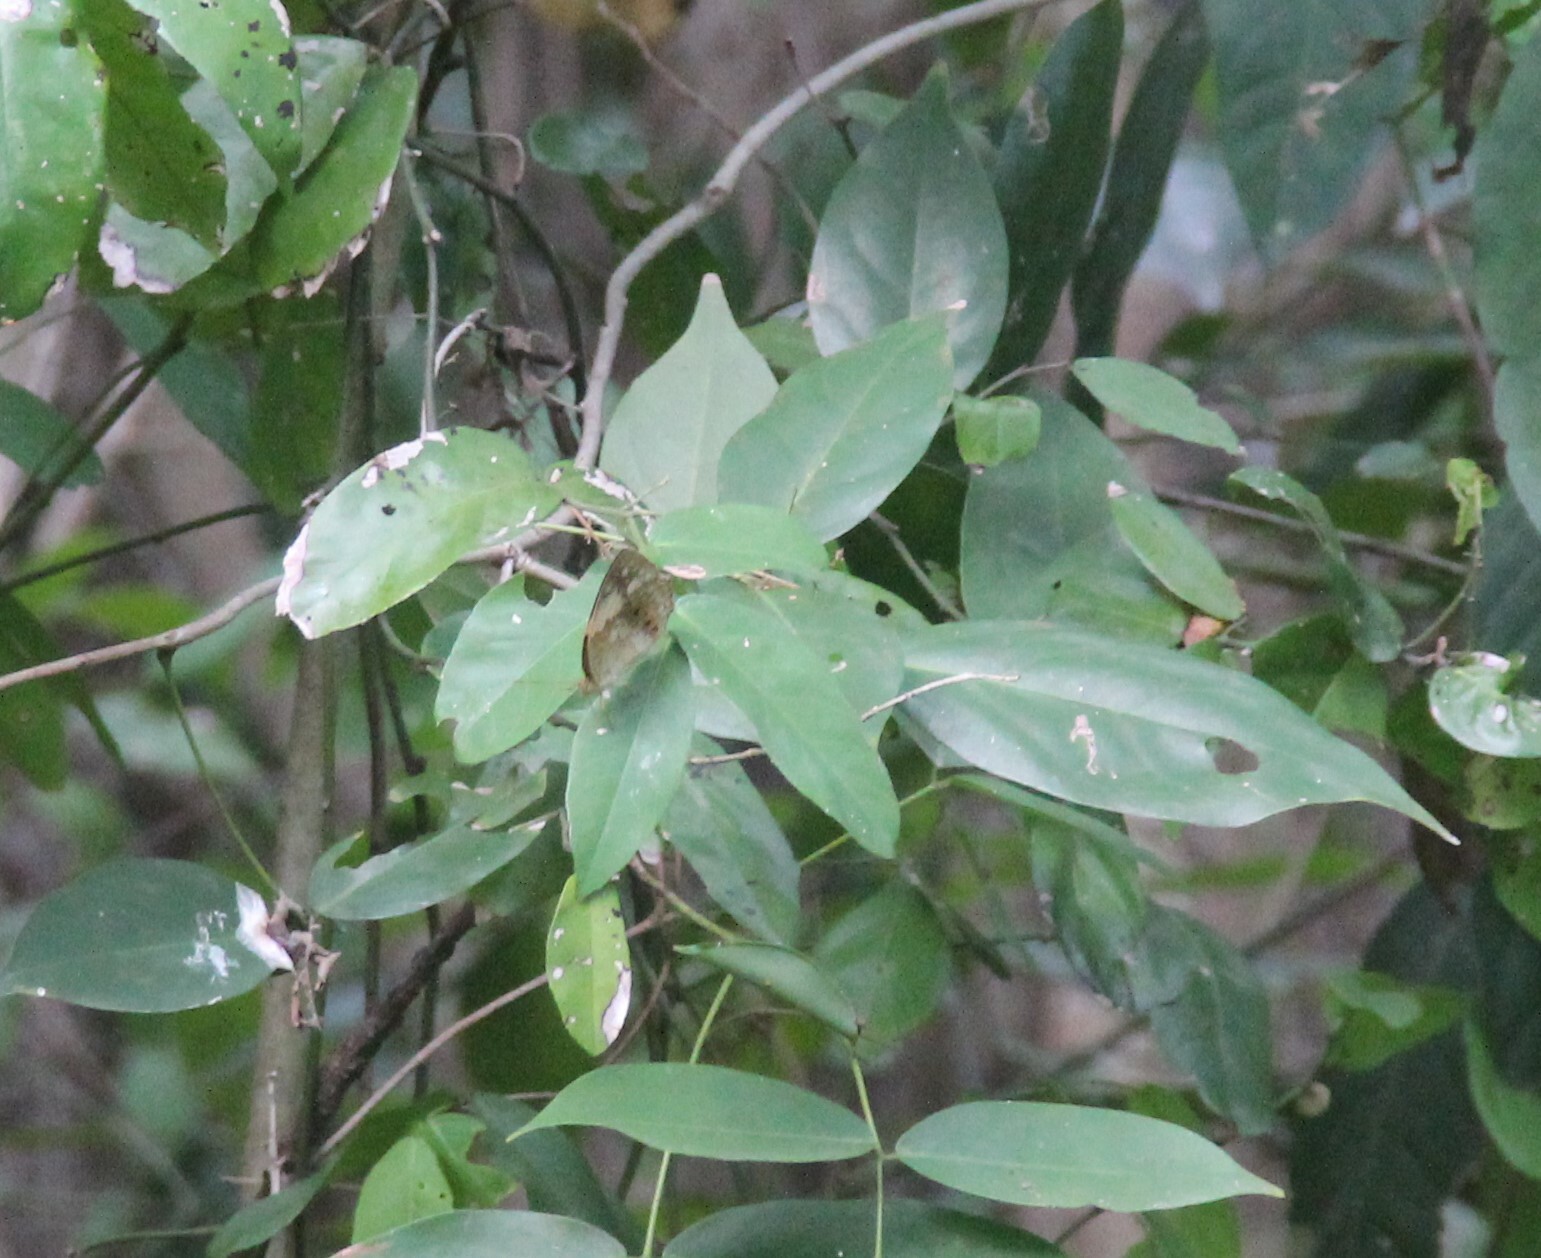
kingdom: Animalia
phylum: Arthropoda
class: Insecta
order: Lepidoptera
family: Nymphalidae
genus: Cupha
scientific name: Cupha erymanthis
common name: Rustic
